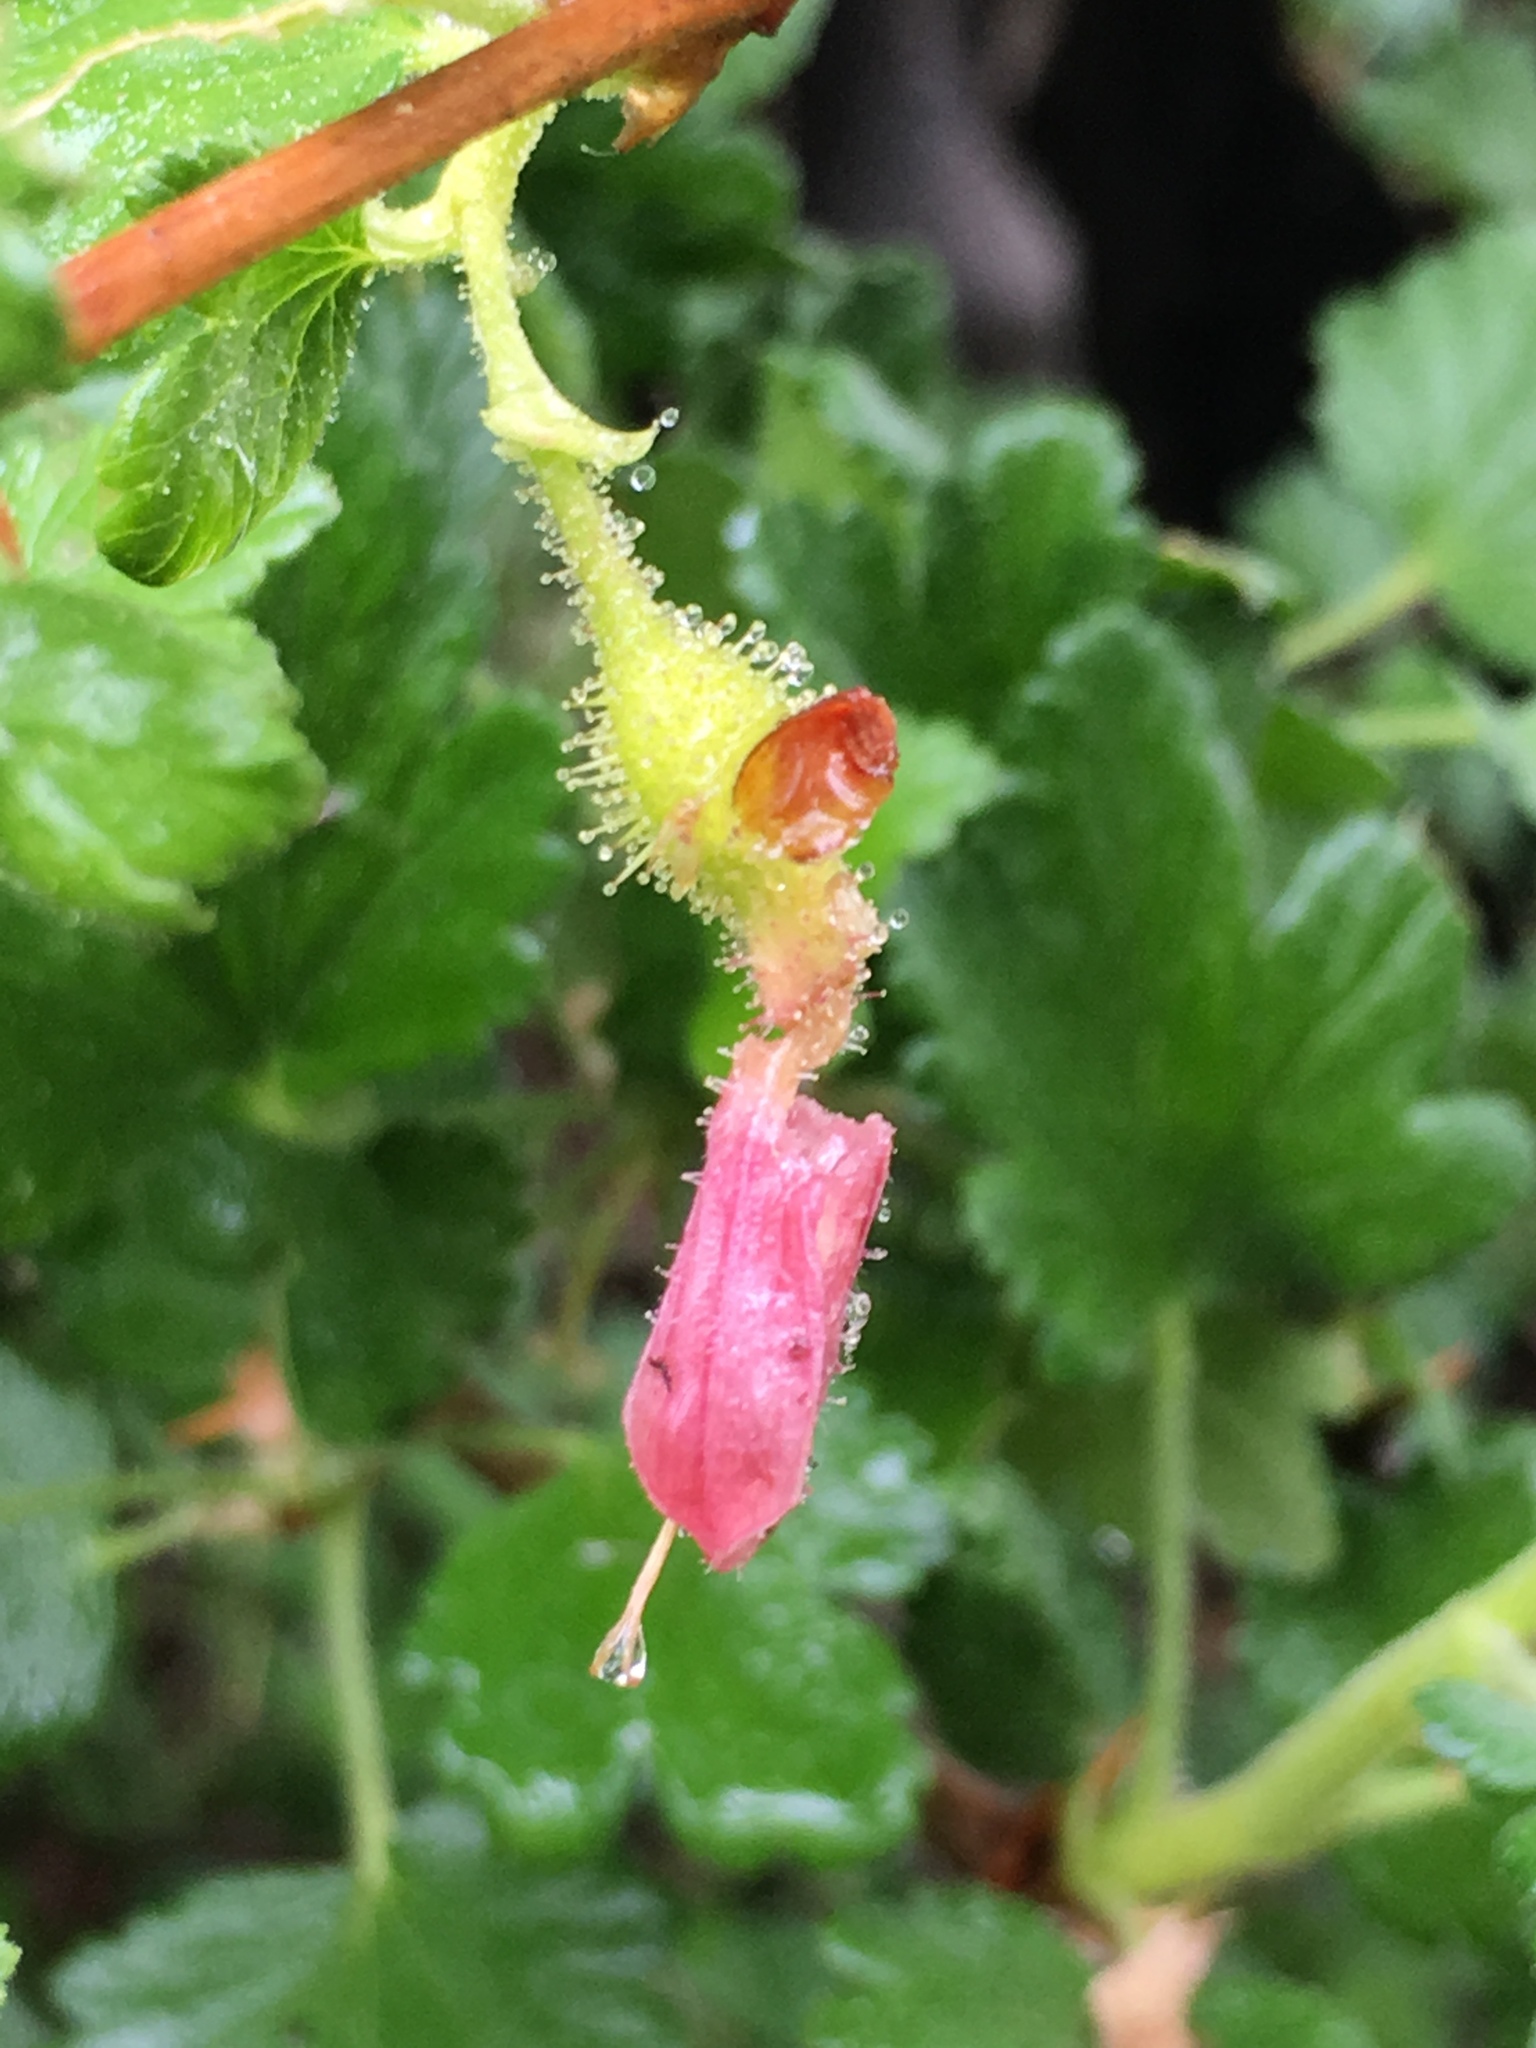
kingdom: Plantae
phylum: Tracheophyta
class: Magnoliopsida
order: Saxifragales
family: Grossulariaceae
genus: Ribes
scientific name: Ribes nevadense
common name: Mountain pink currant
